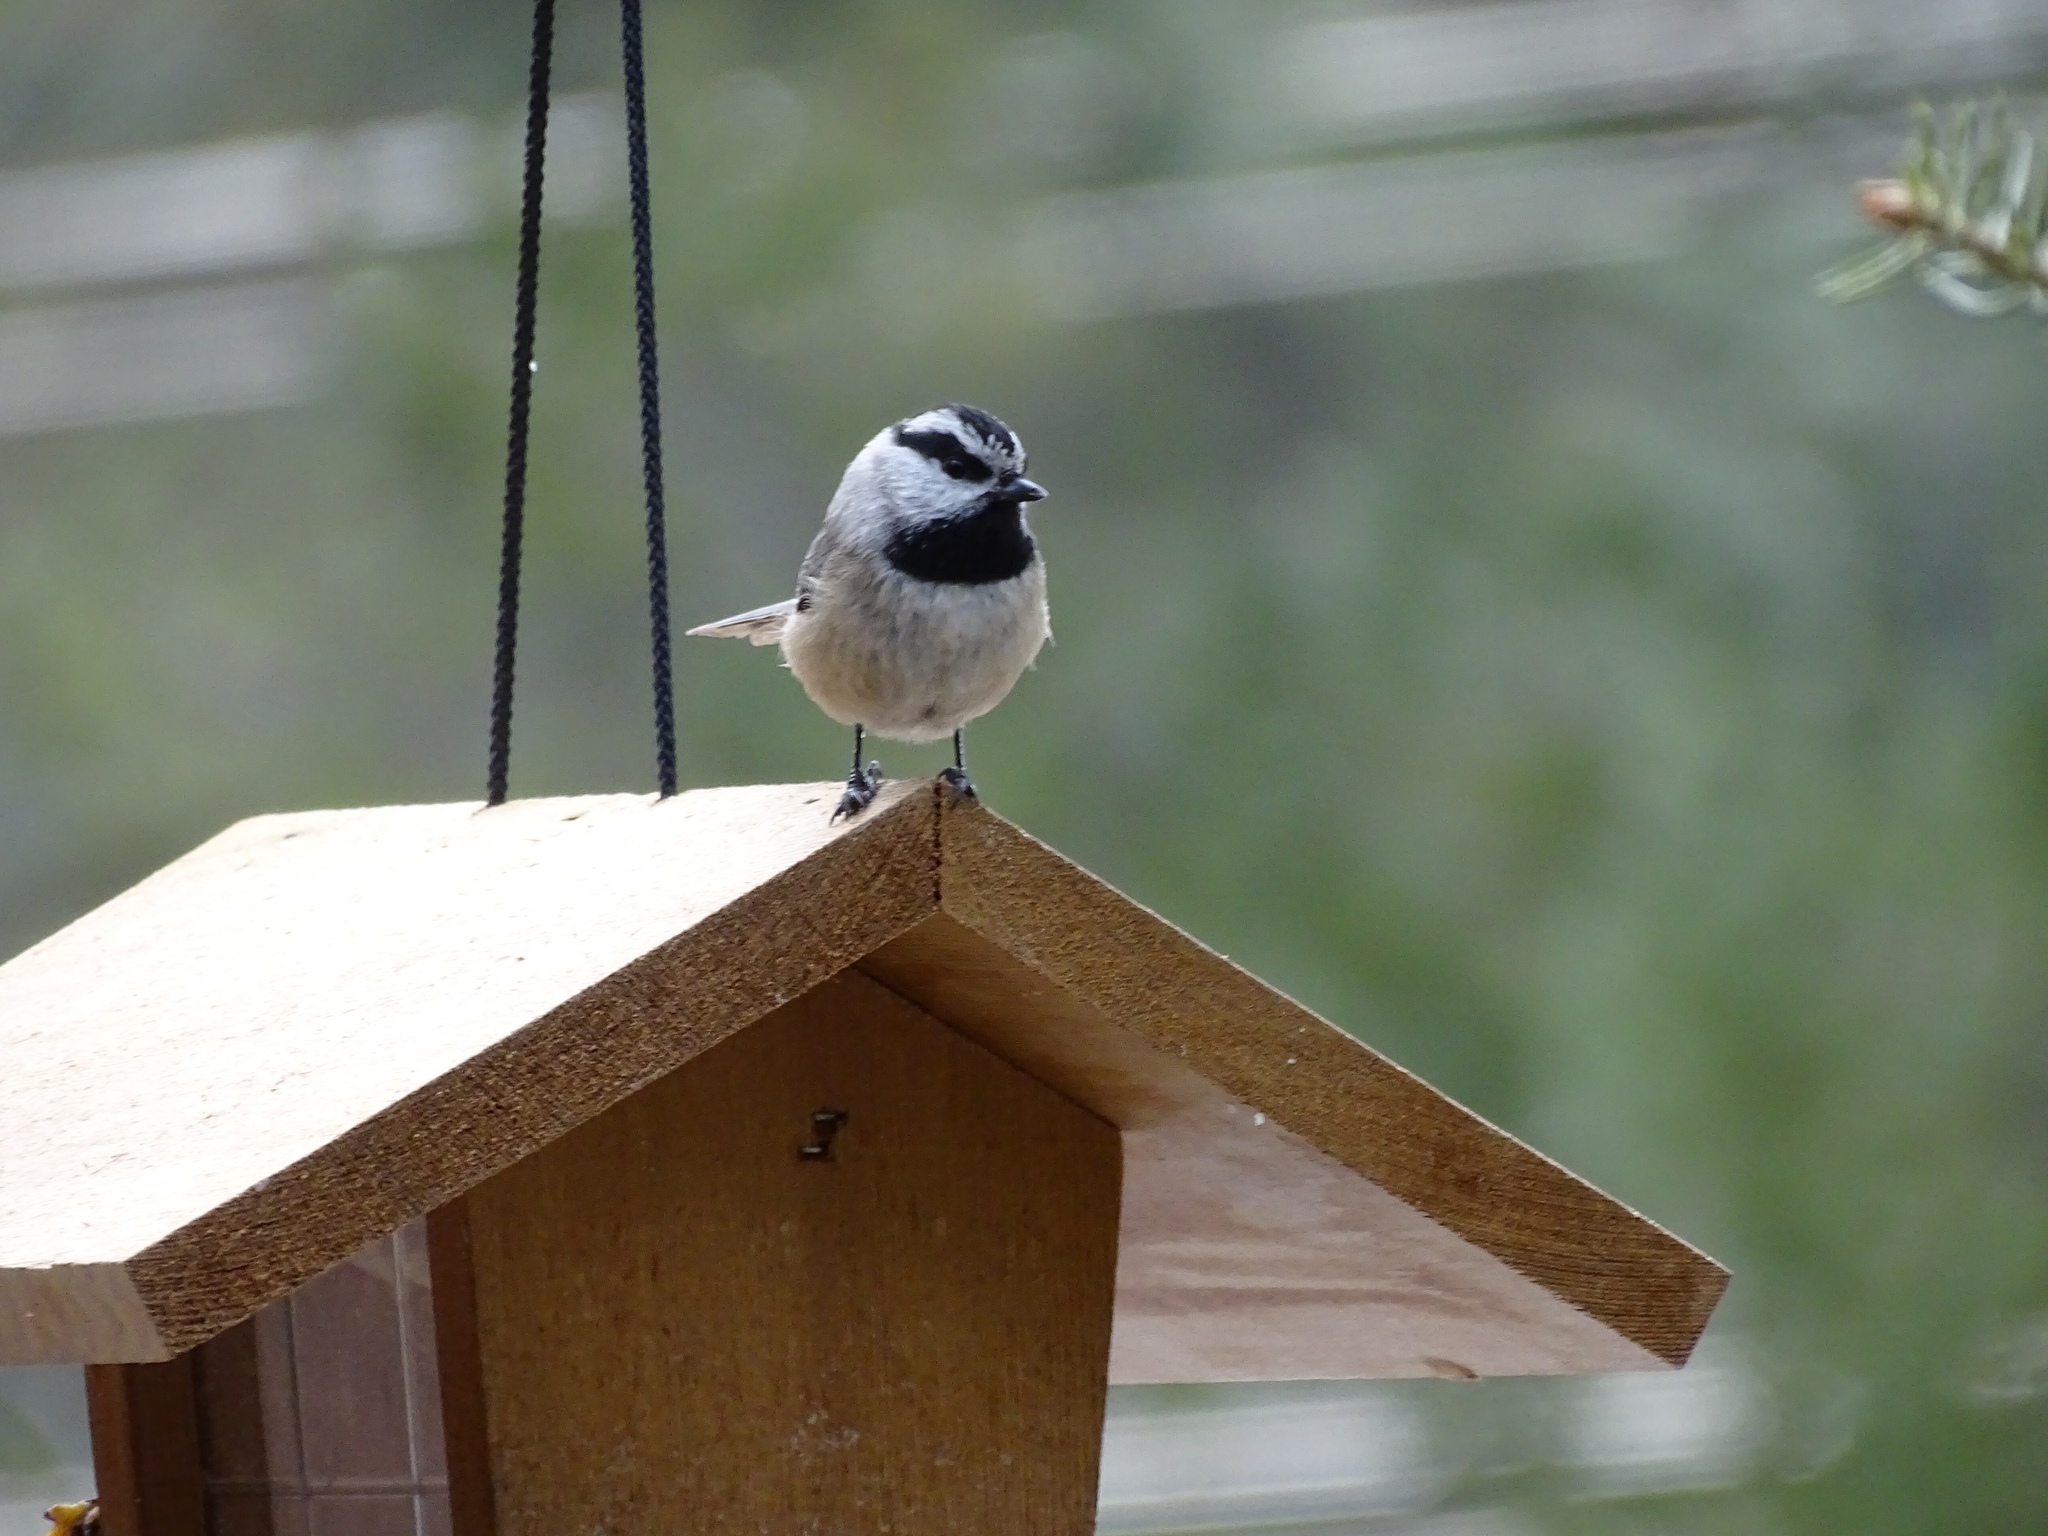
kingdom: Animalia
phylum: Chordata
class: Aves
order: Passeriformes
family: Paridae
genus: Poecile
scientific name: Poecile gambeli
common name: Mountain chickadee
